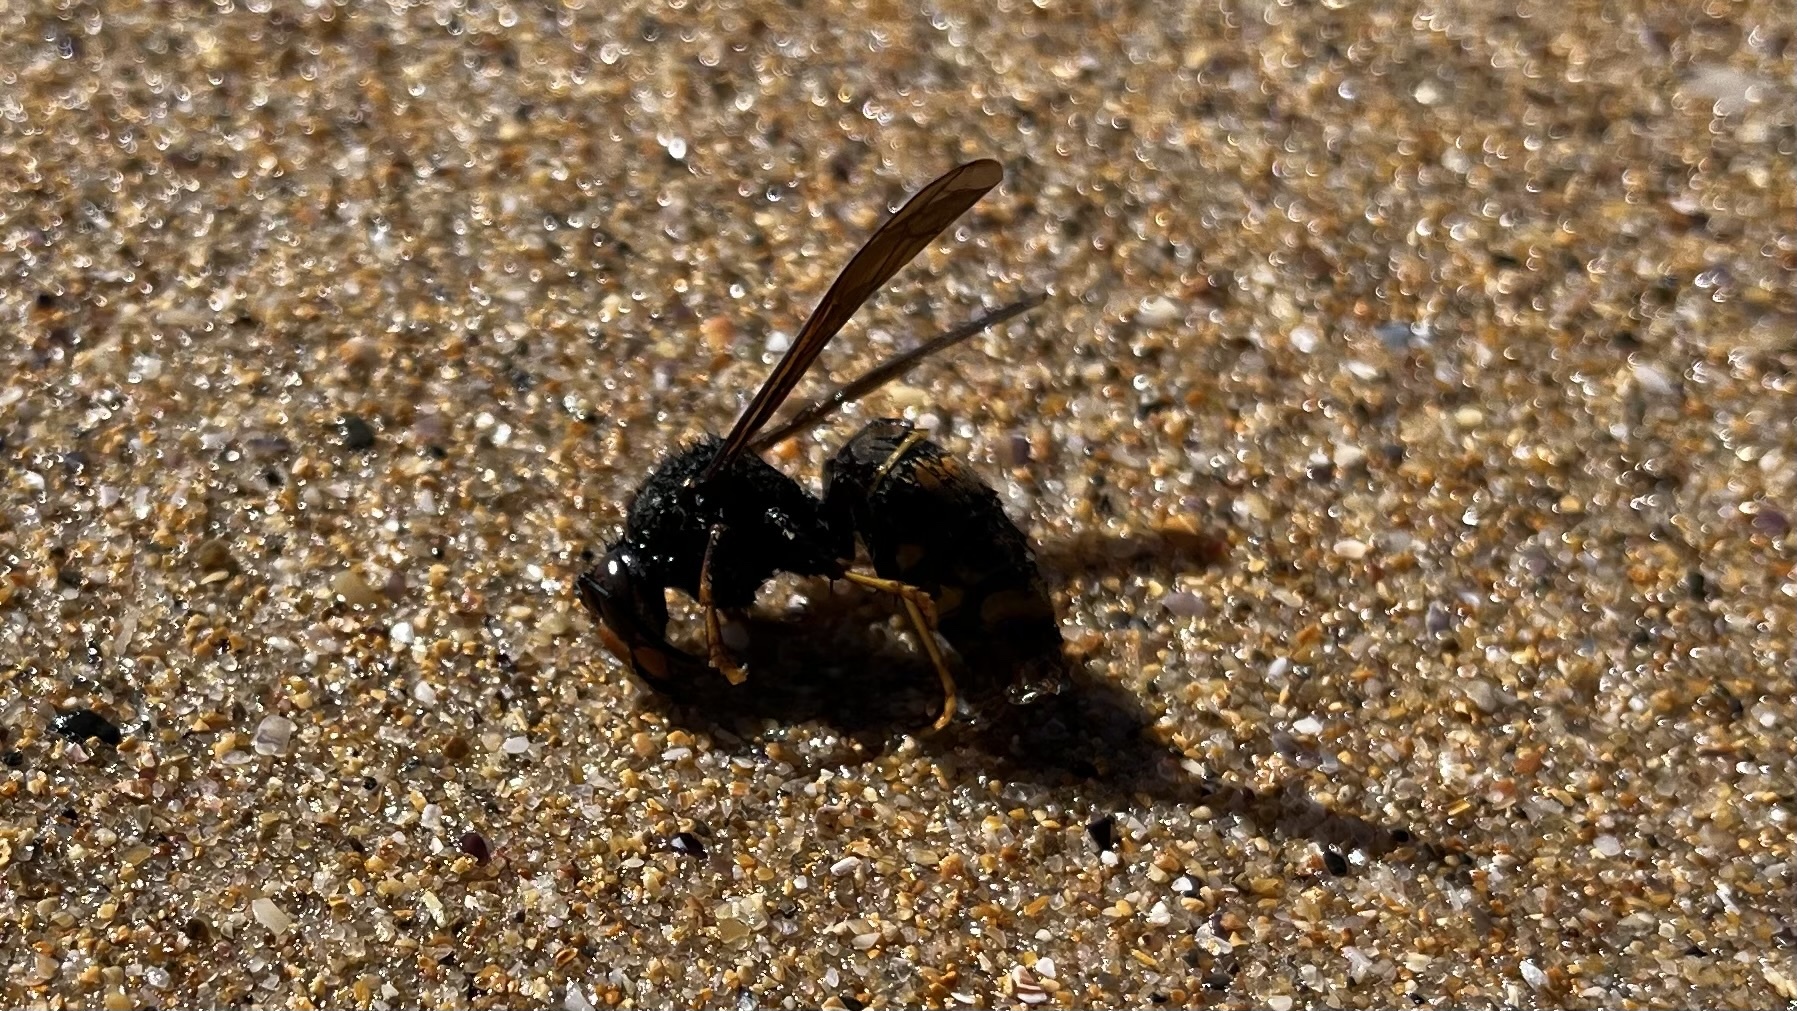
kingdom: Animalia
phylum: Arthropoda
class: Insecta
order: Hymenoptera
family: Vespidae
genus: Vespa
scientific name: Vespa velutina
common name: Asian hornet
